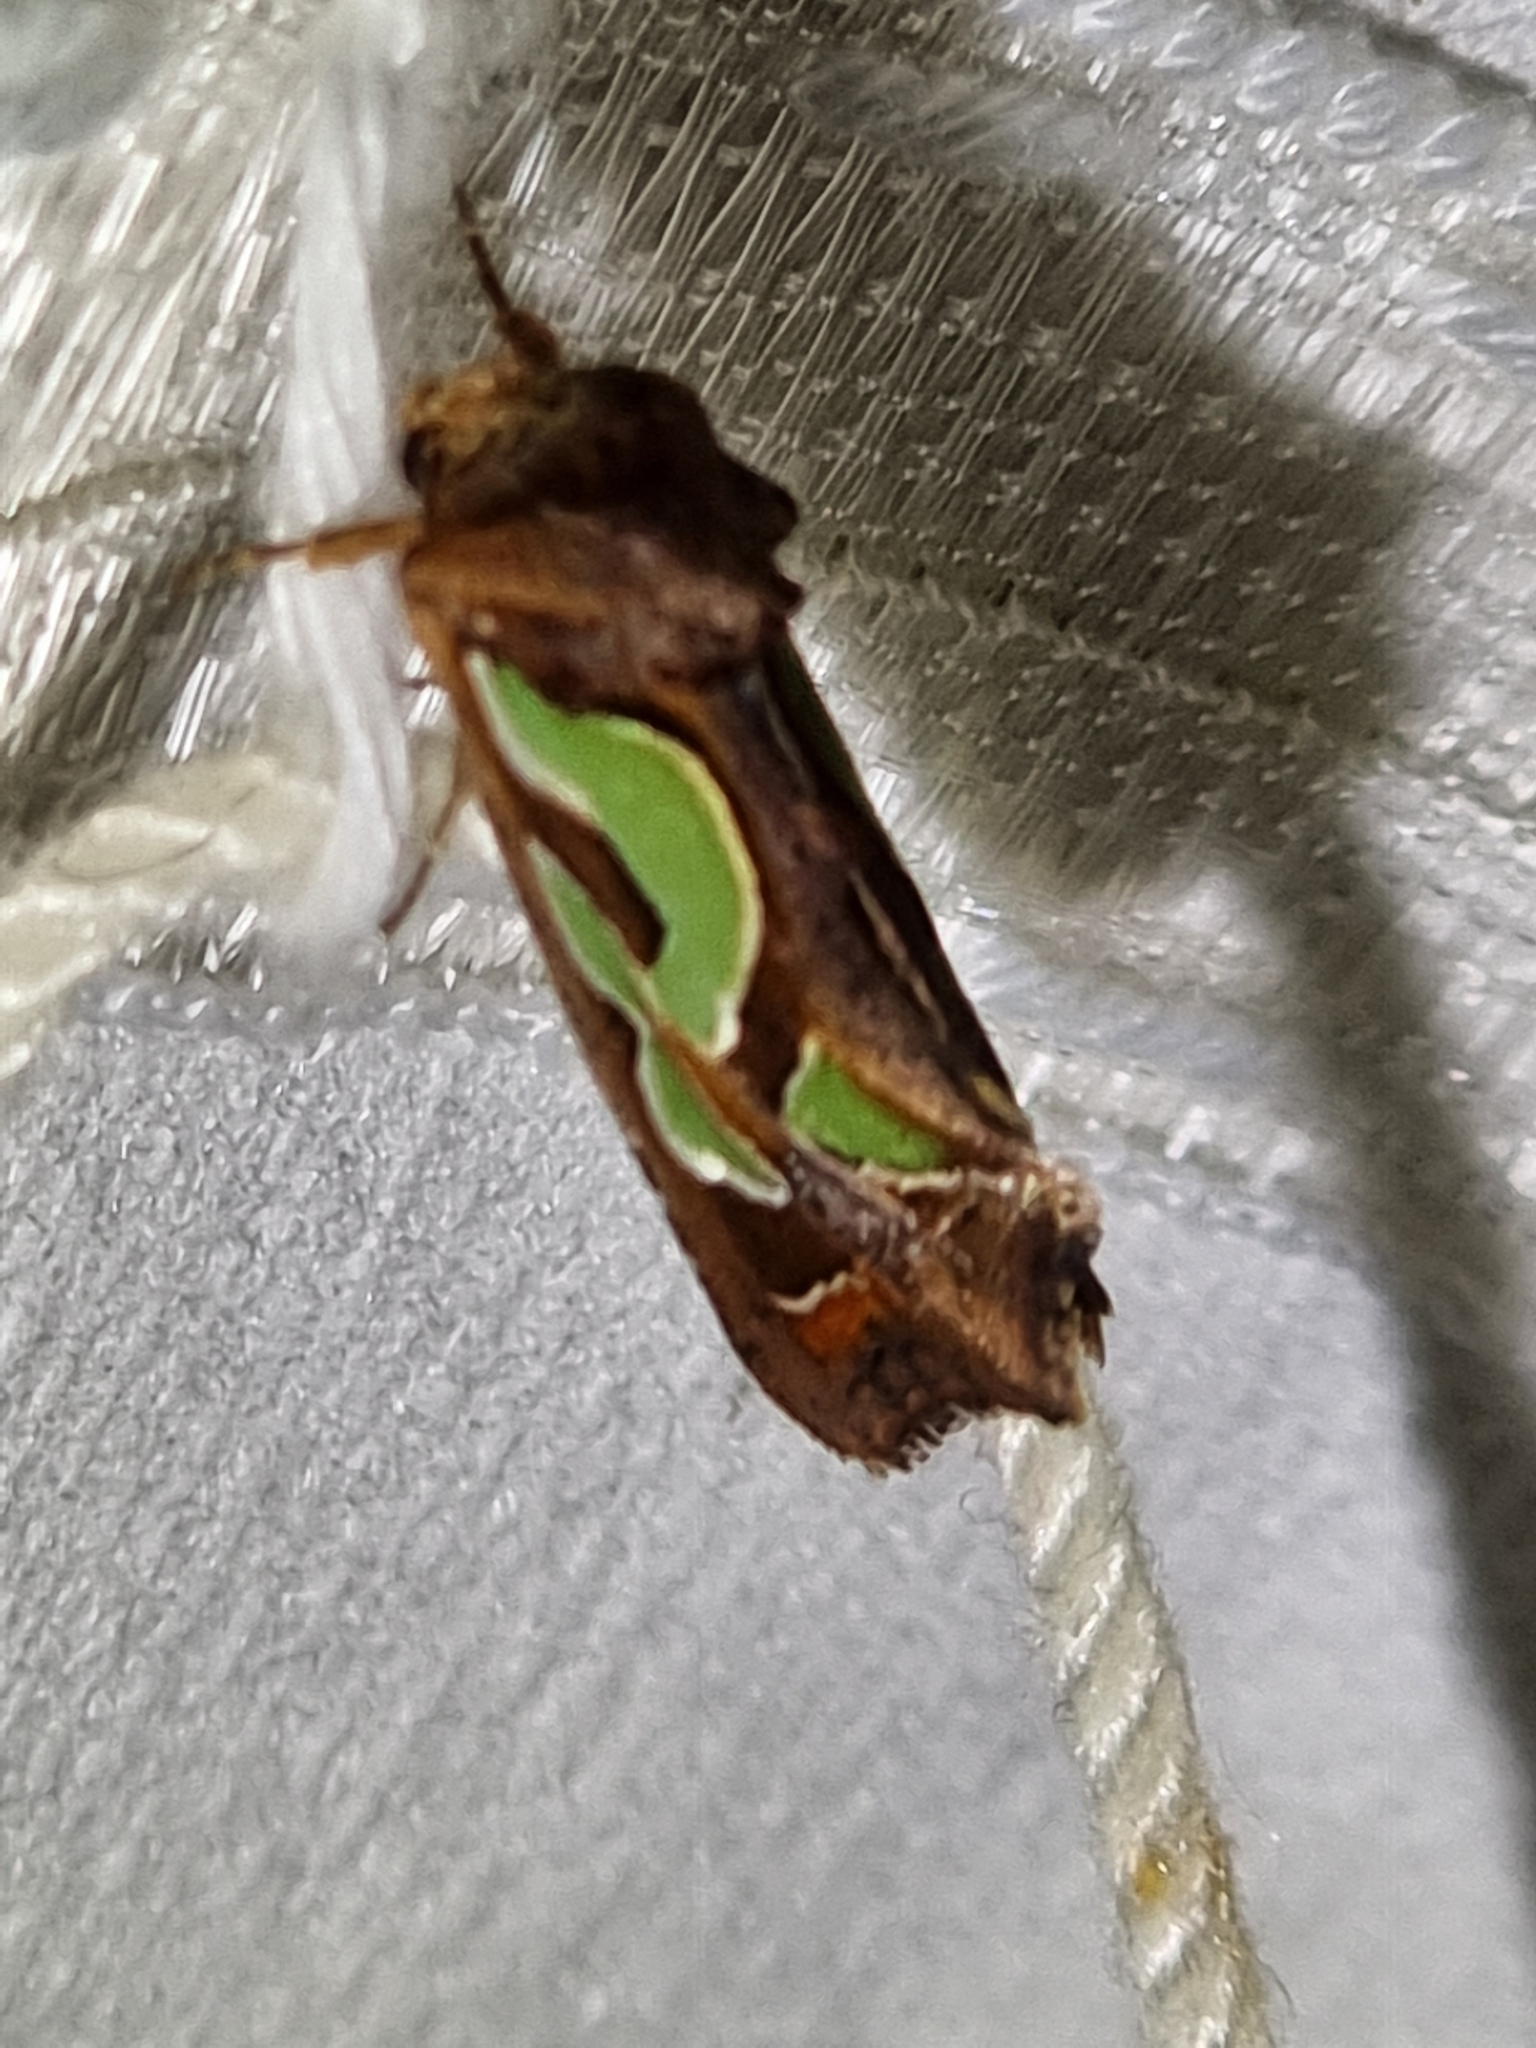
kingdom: Animalia
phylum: Arthropoda
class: Insecta
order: Lepidoptera
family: Noctuidae
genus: Cosmodes
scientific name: Cosmodes elegans
